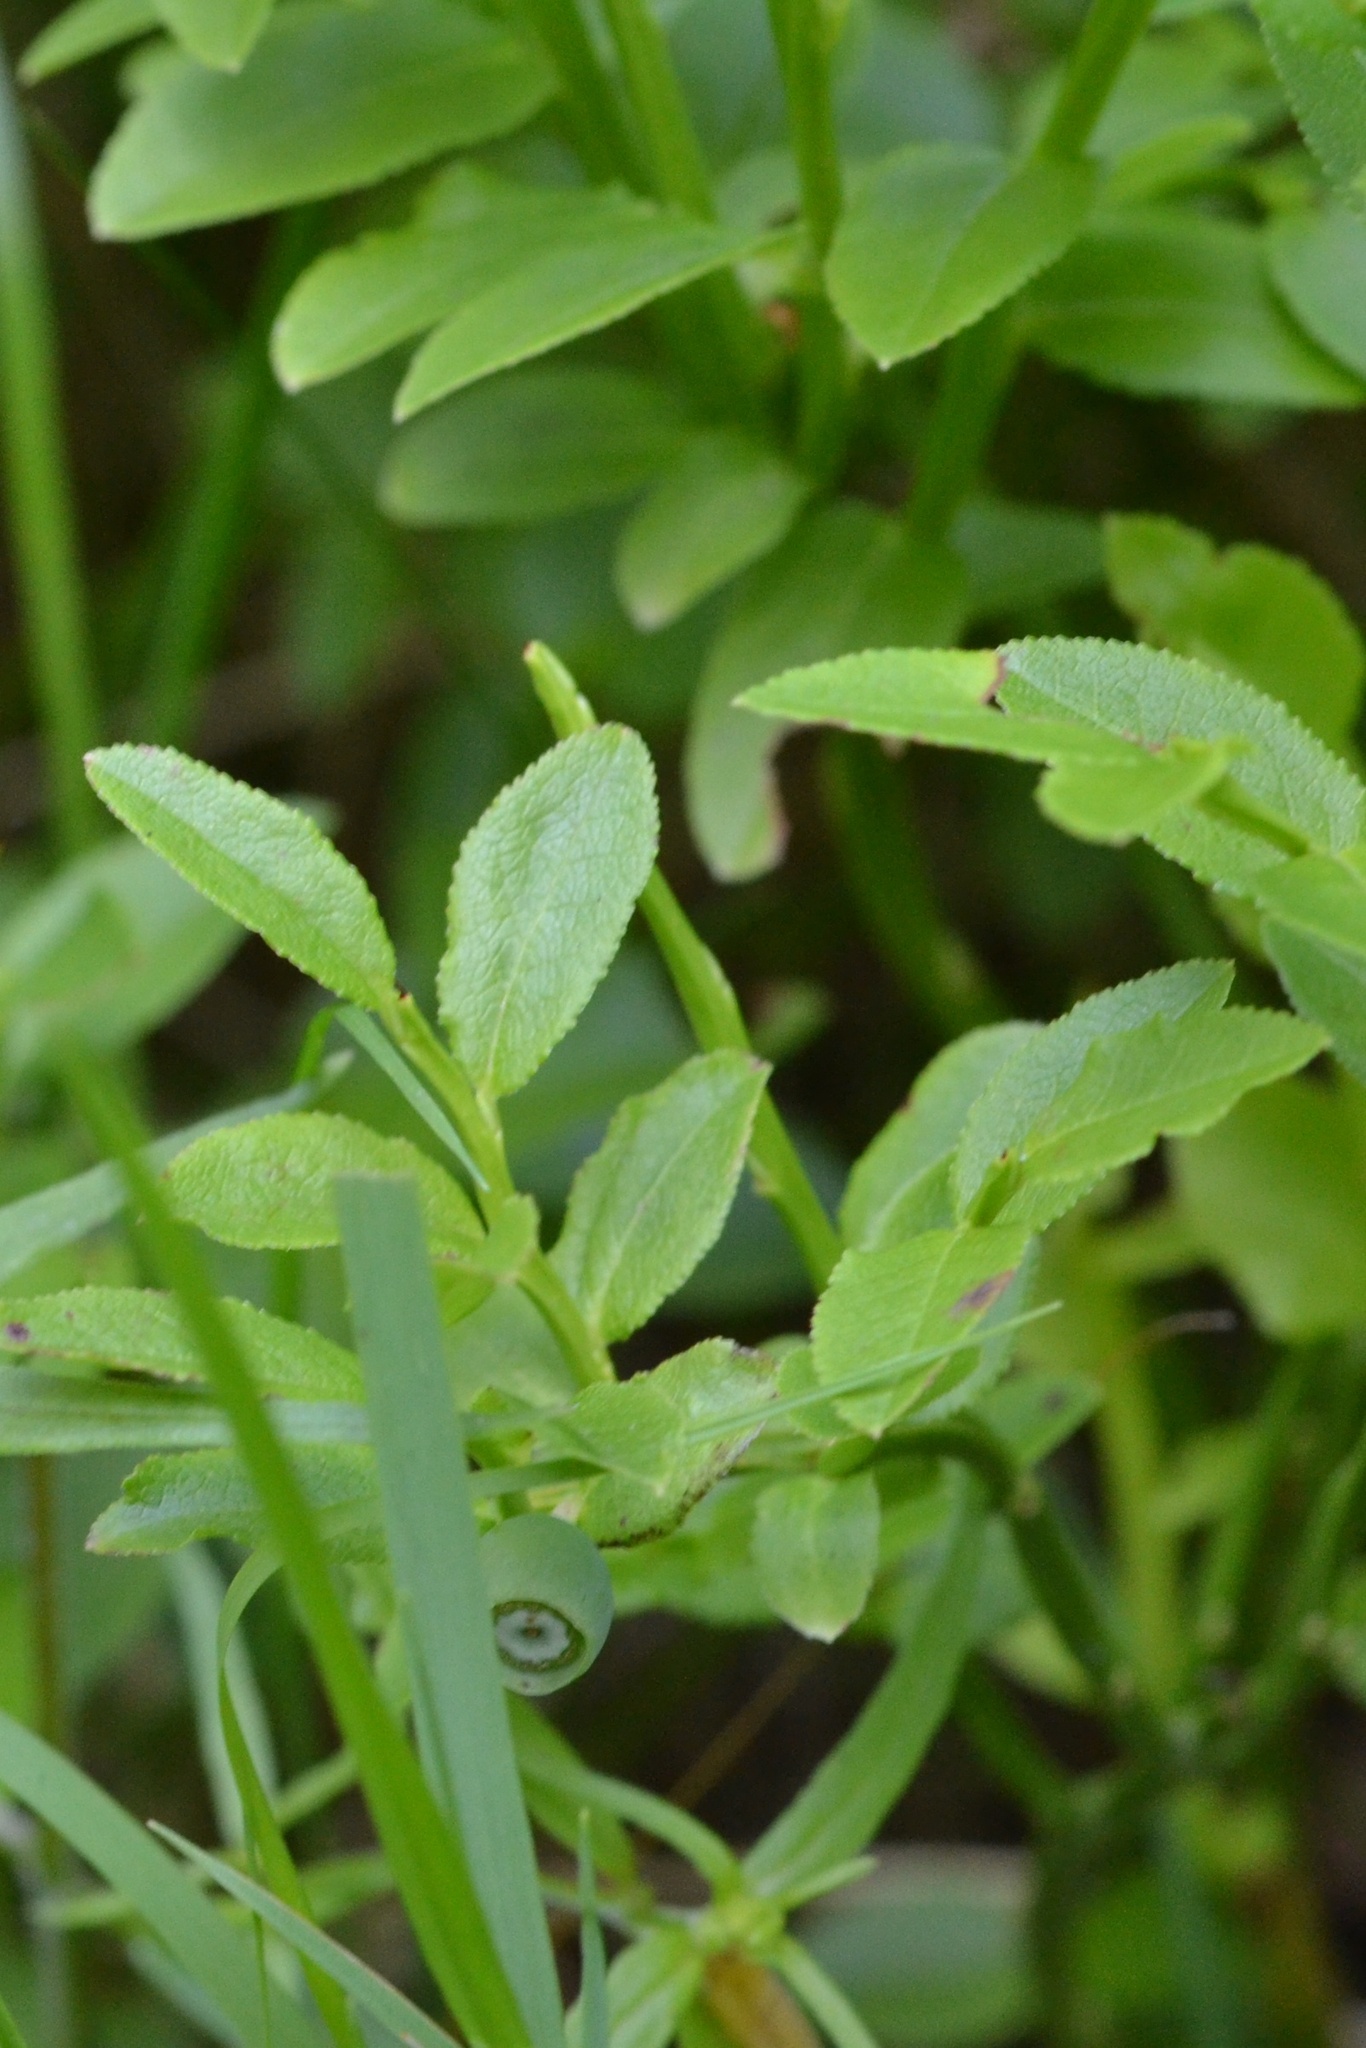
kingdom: Plantae
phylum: Tracheophyta
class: Magnoliopsida
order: Ericales
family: Ericaceae
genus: Vaccinium
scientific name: Vaccinium myrtillus
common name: Bilberry
